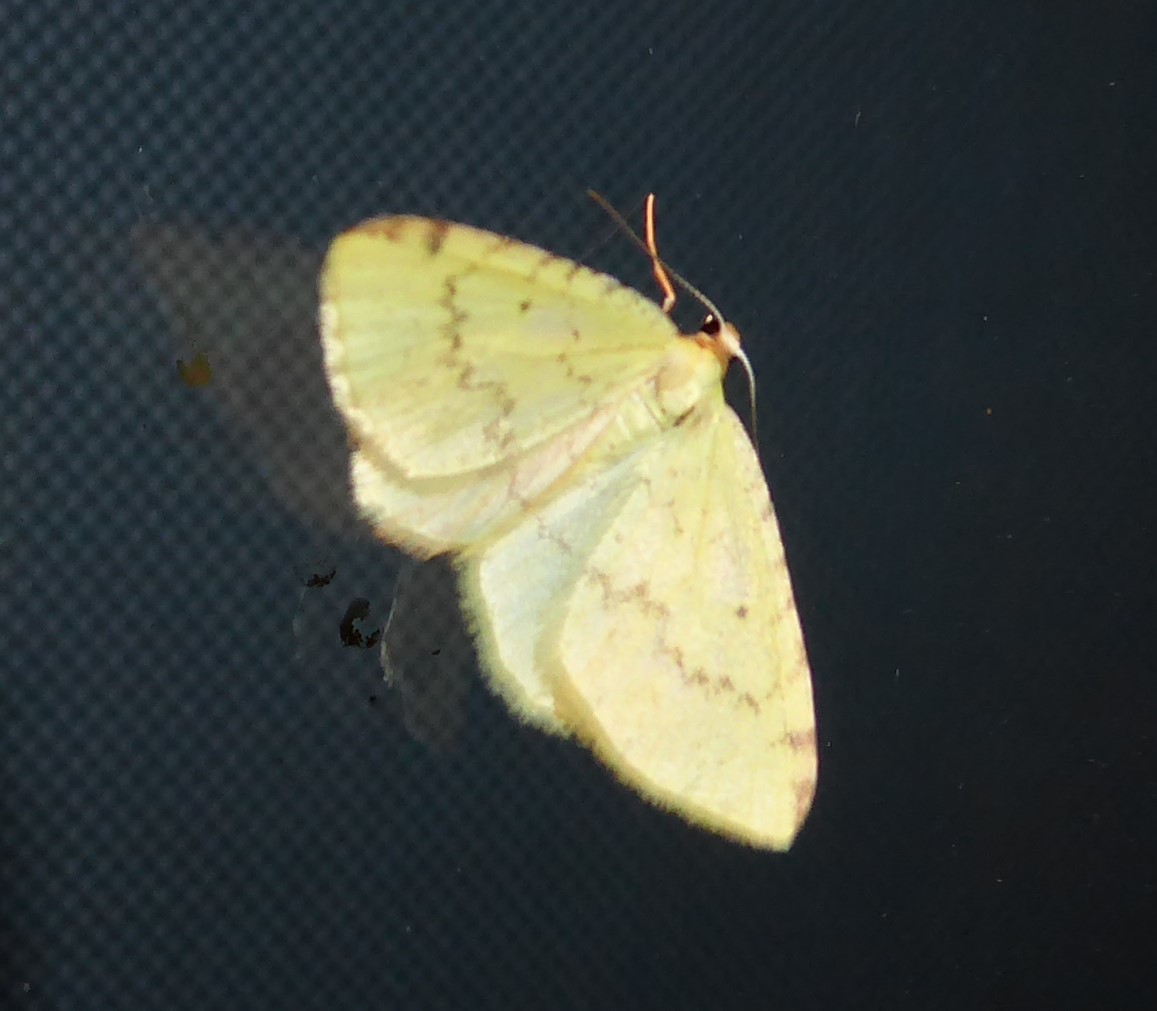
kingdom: Animalia
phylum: Arthropoda
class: Insecta
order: Lepidoptera
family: Geometridae
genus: Epiphryne
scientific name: Epiphryne undosata
